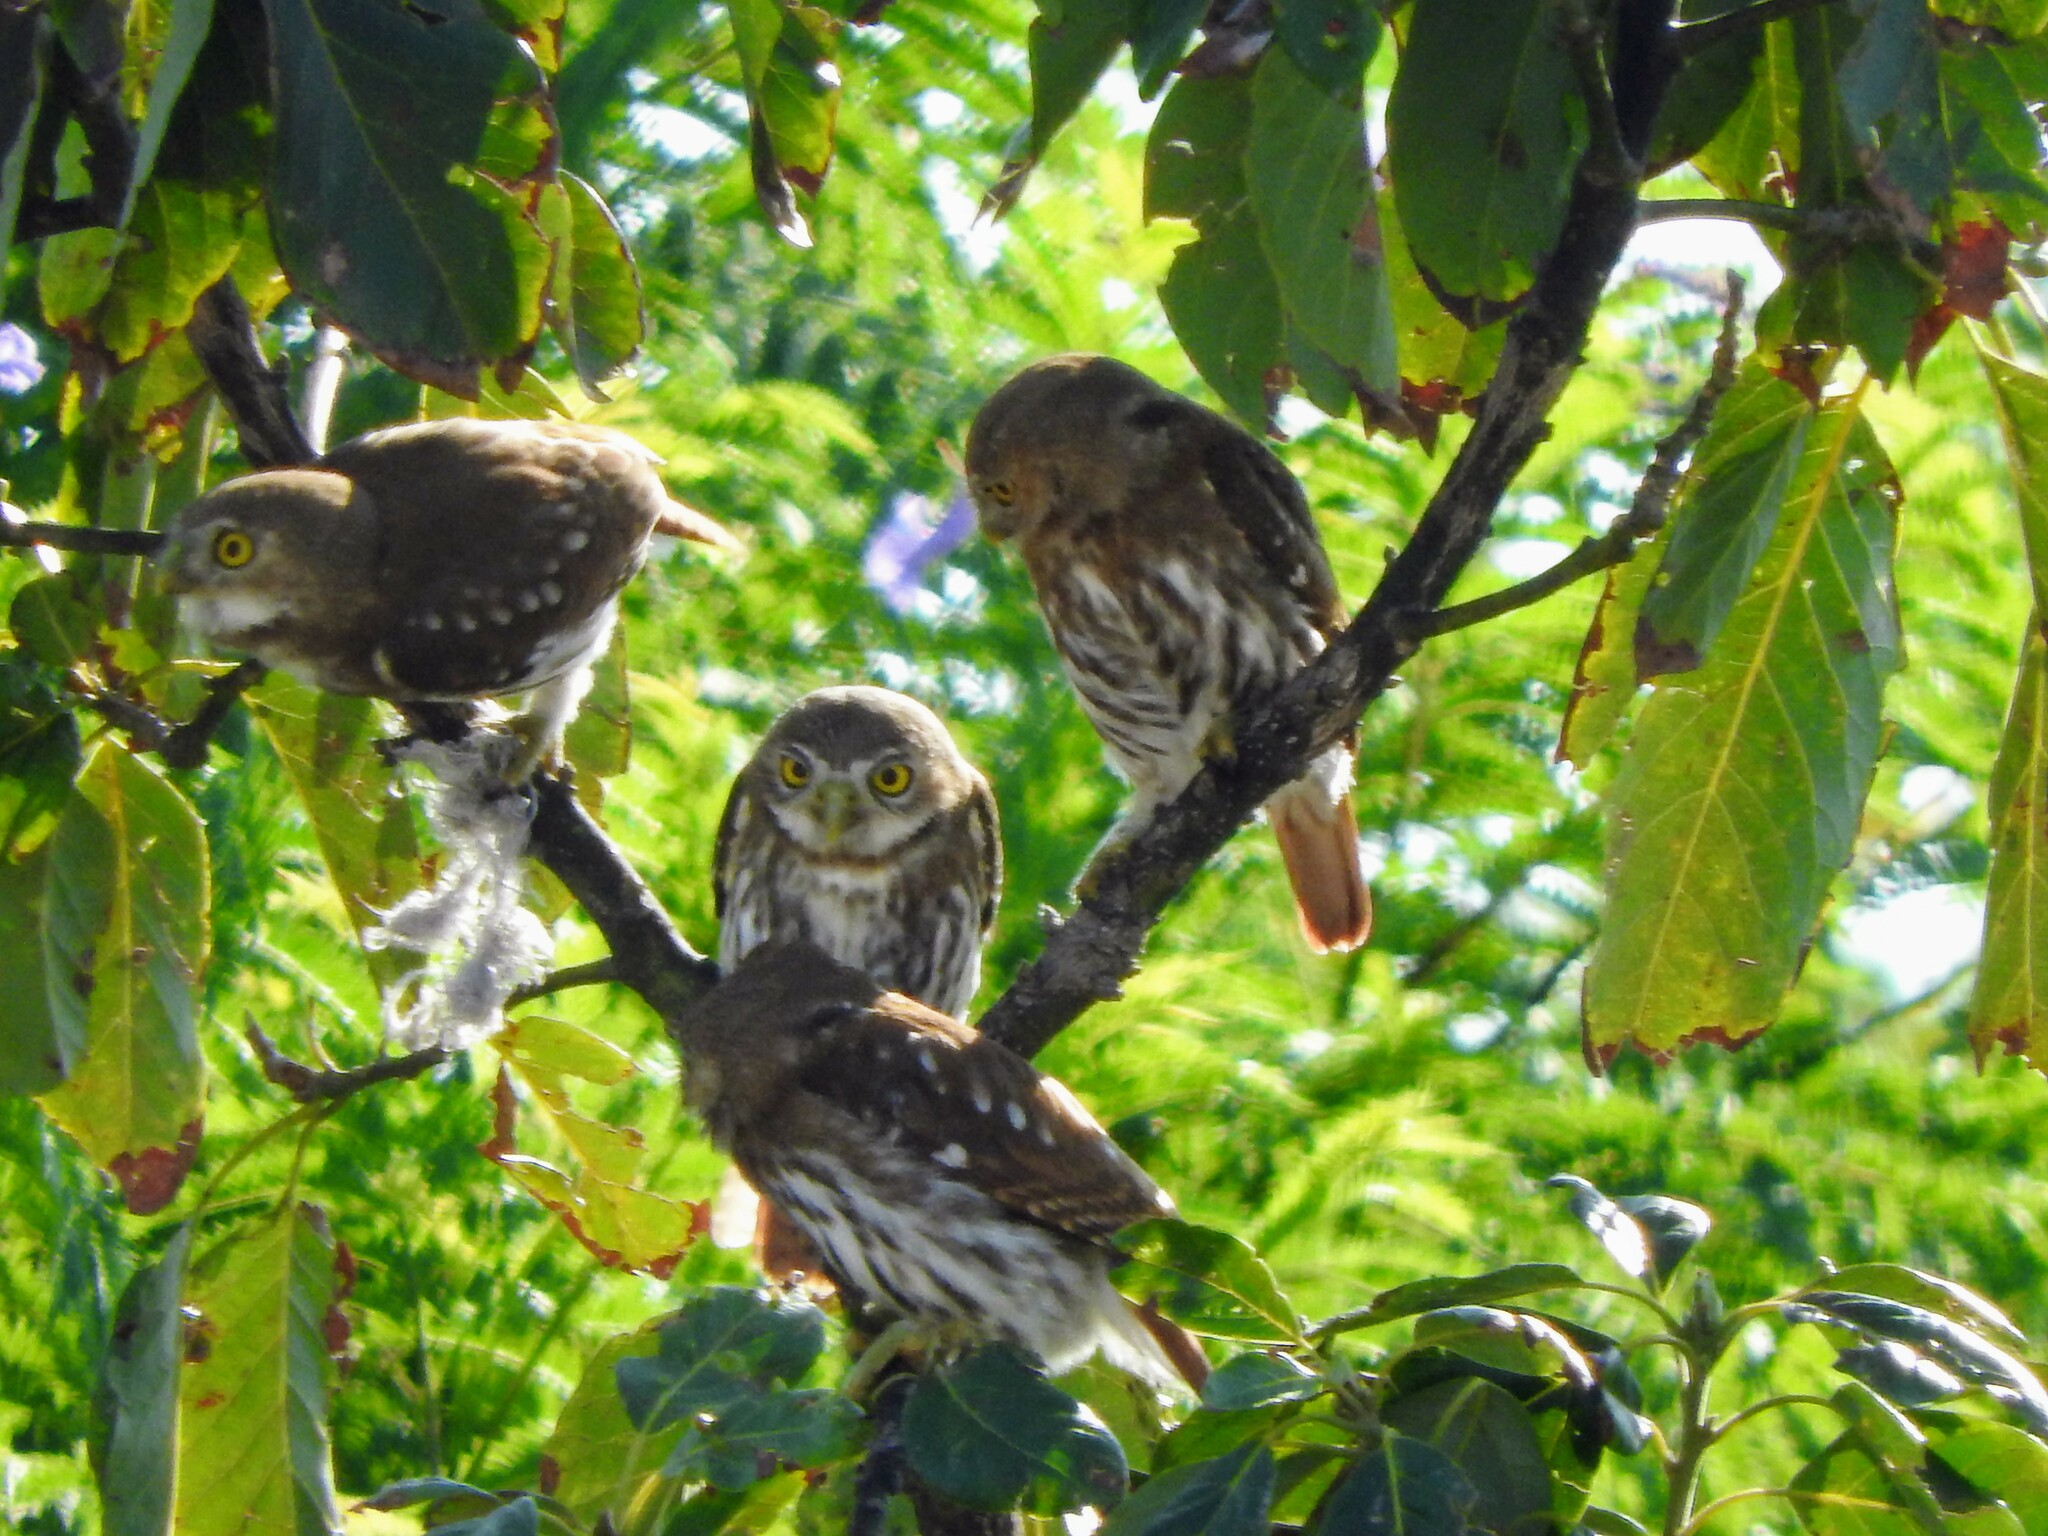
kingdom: Animalia
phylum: Chordata
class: Aves
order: Strigiformes
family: Strigidae
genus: Glaucidium
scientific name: Glaucidium brasilianum
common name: Ferruginous pygmy-owl
